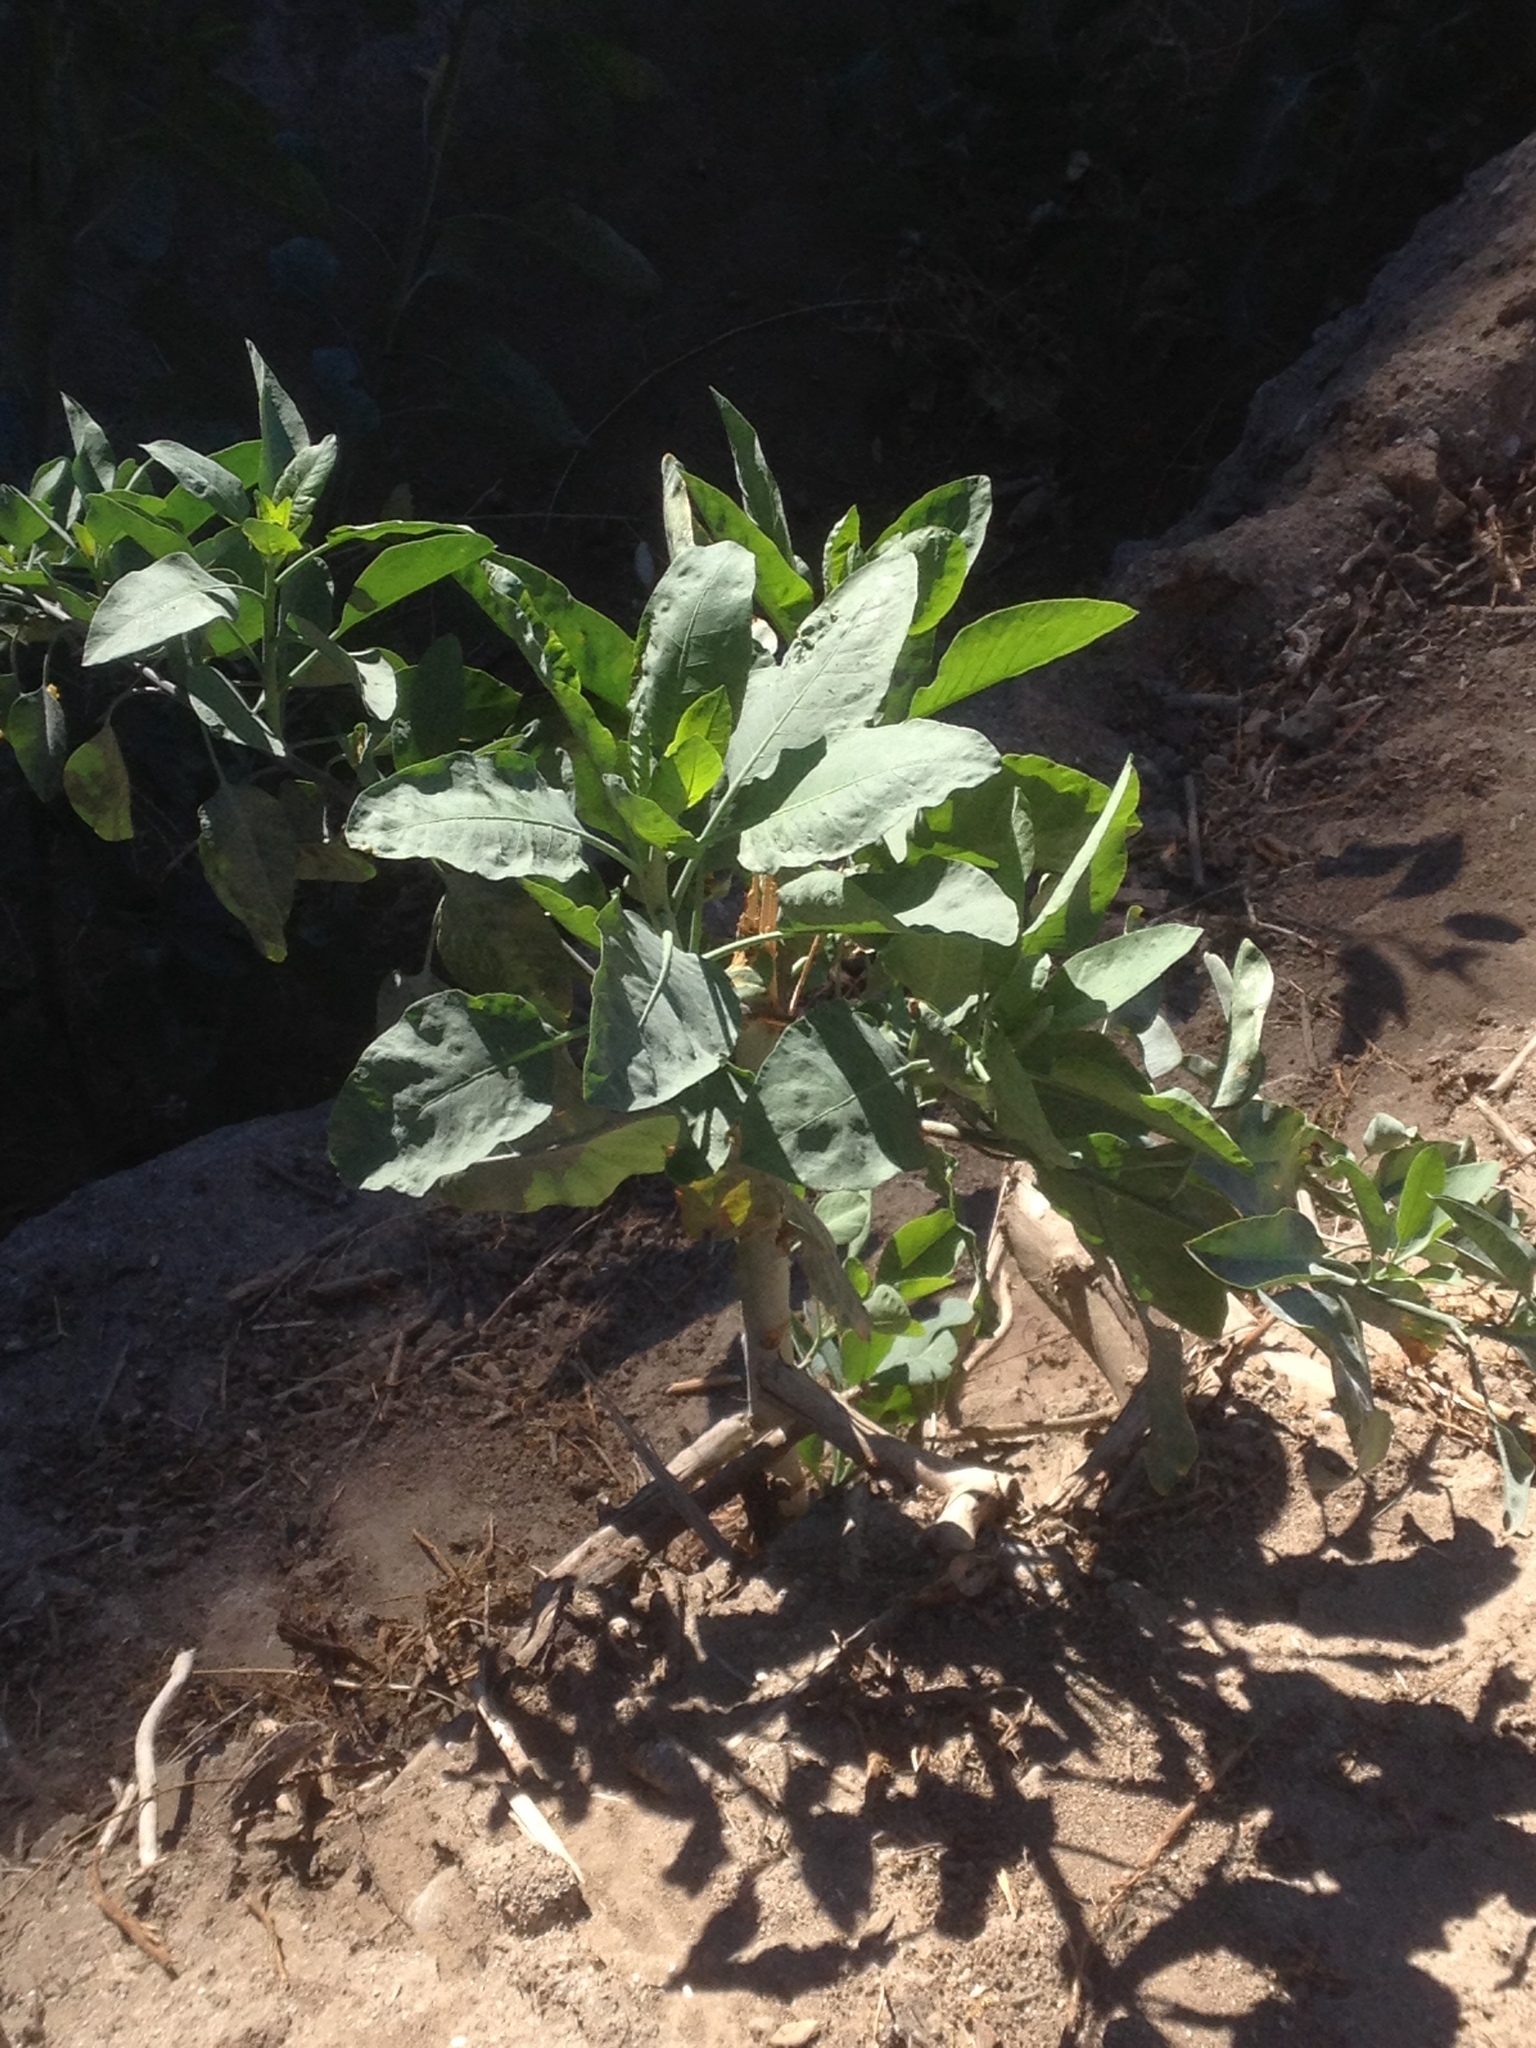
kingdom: Plantae
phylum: Tracheophyta
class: Magnoliopsida
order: Solanales
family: Solanaceae
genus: Nicotiana
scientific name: Nicotiana glauca
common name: Tree tobacco
